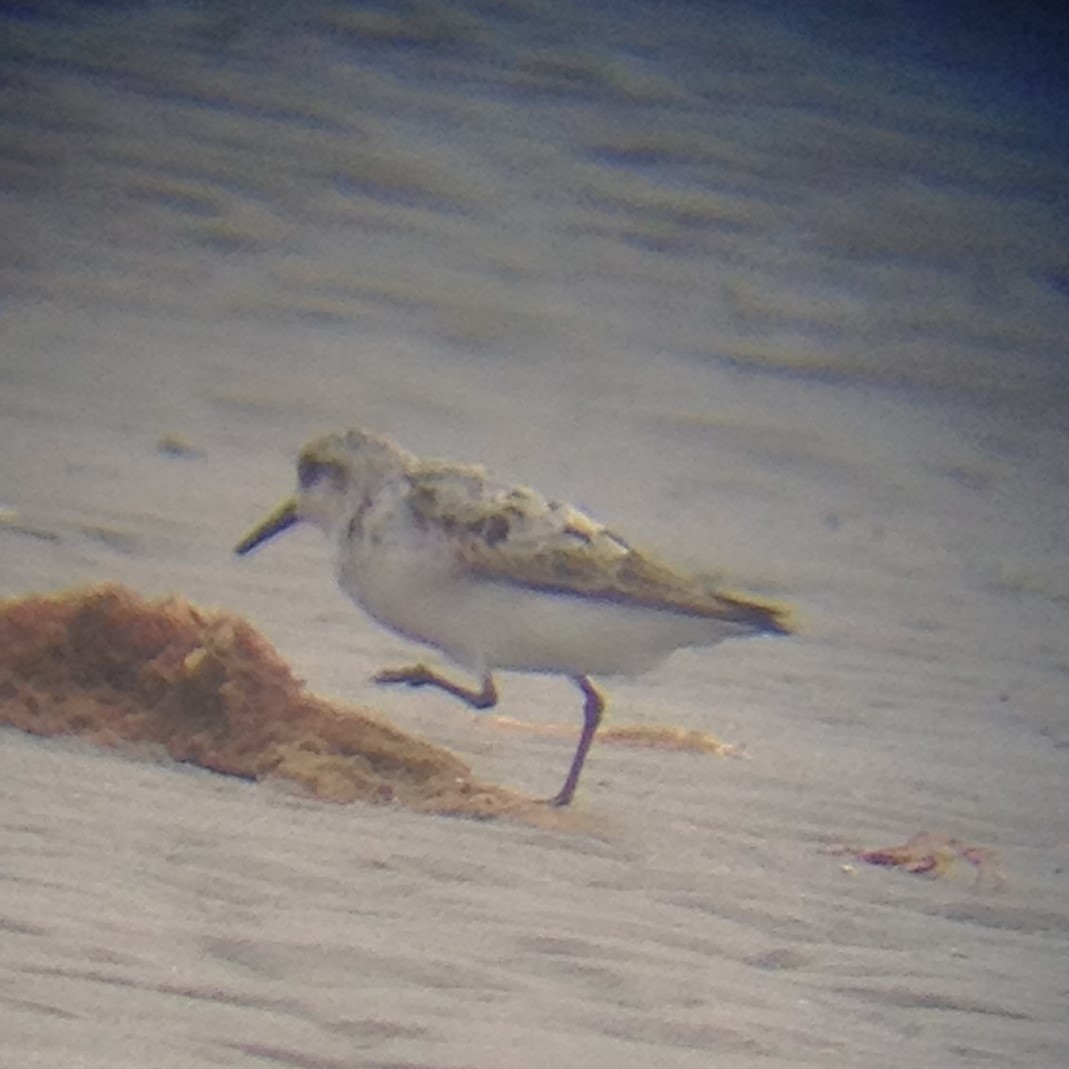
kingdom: Animalia
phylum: Chordata
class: Aves
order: Charadriiformes
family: Scolopacidae
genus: Calidris
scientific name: Calidris alba
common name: Sanderling
